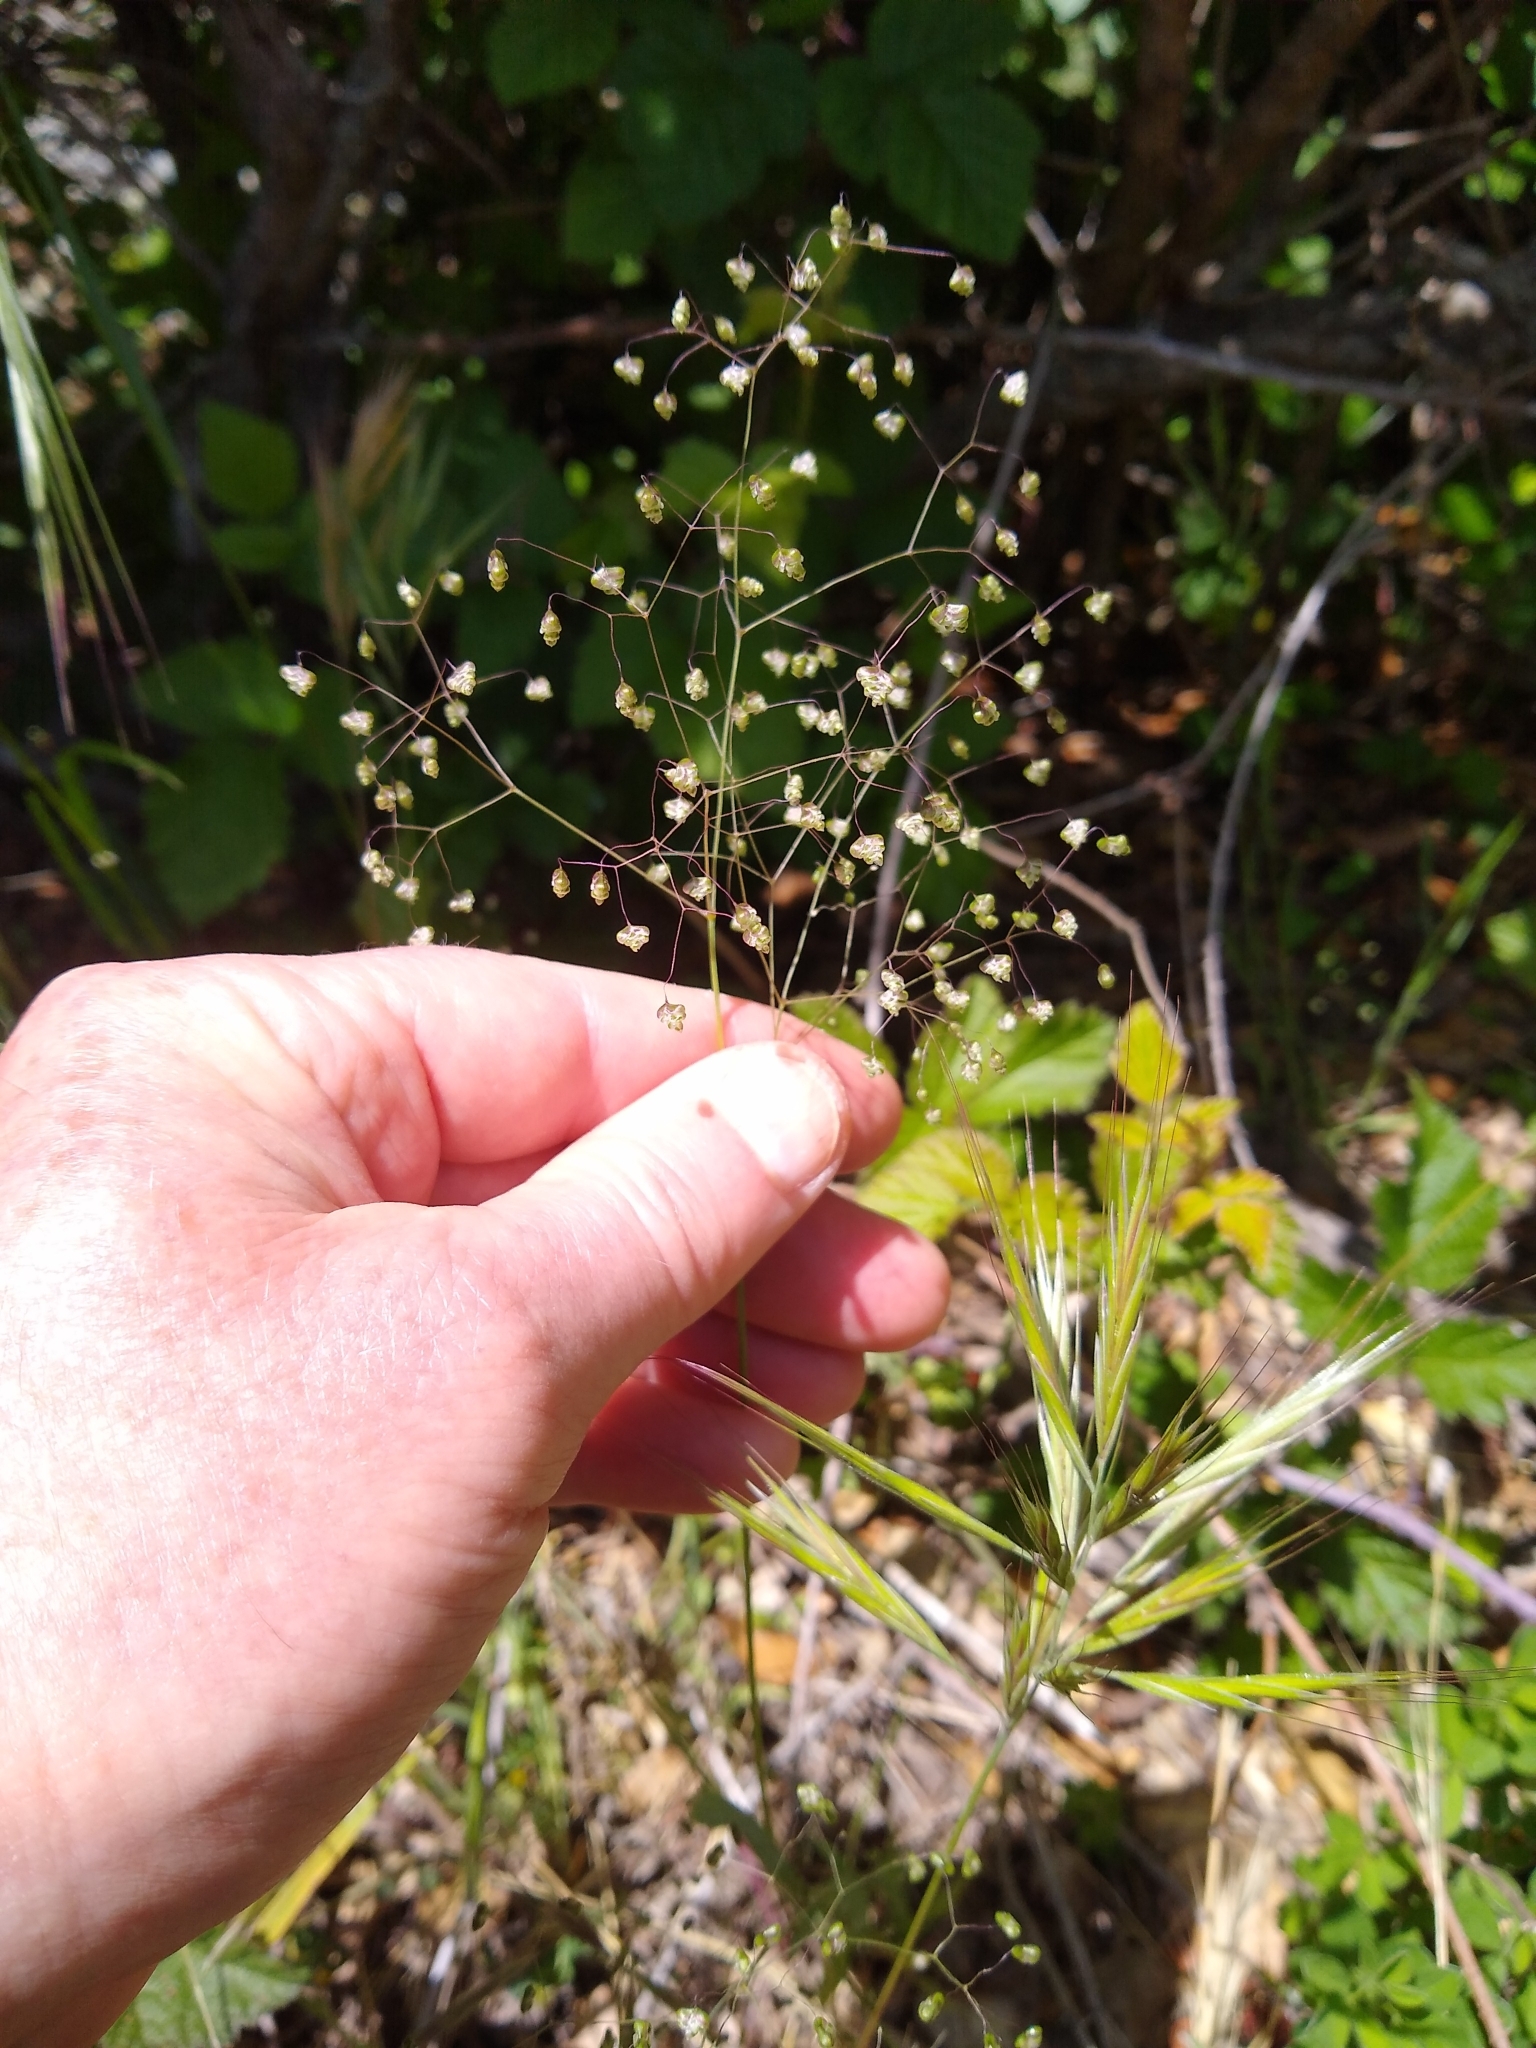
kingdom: Plantae
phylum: Tracheophyta
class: Liliopsida
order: Poales
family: Poaceae
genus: Briza
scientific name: Briza minor
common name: Lesser quaking-grass
